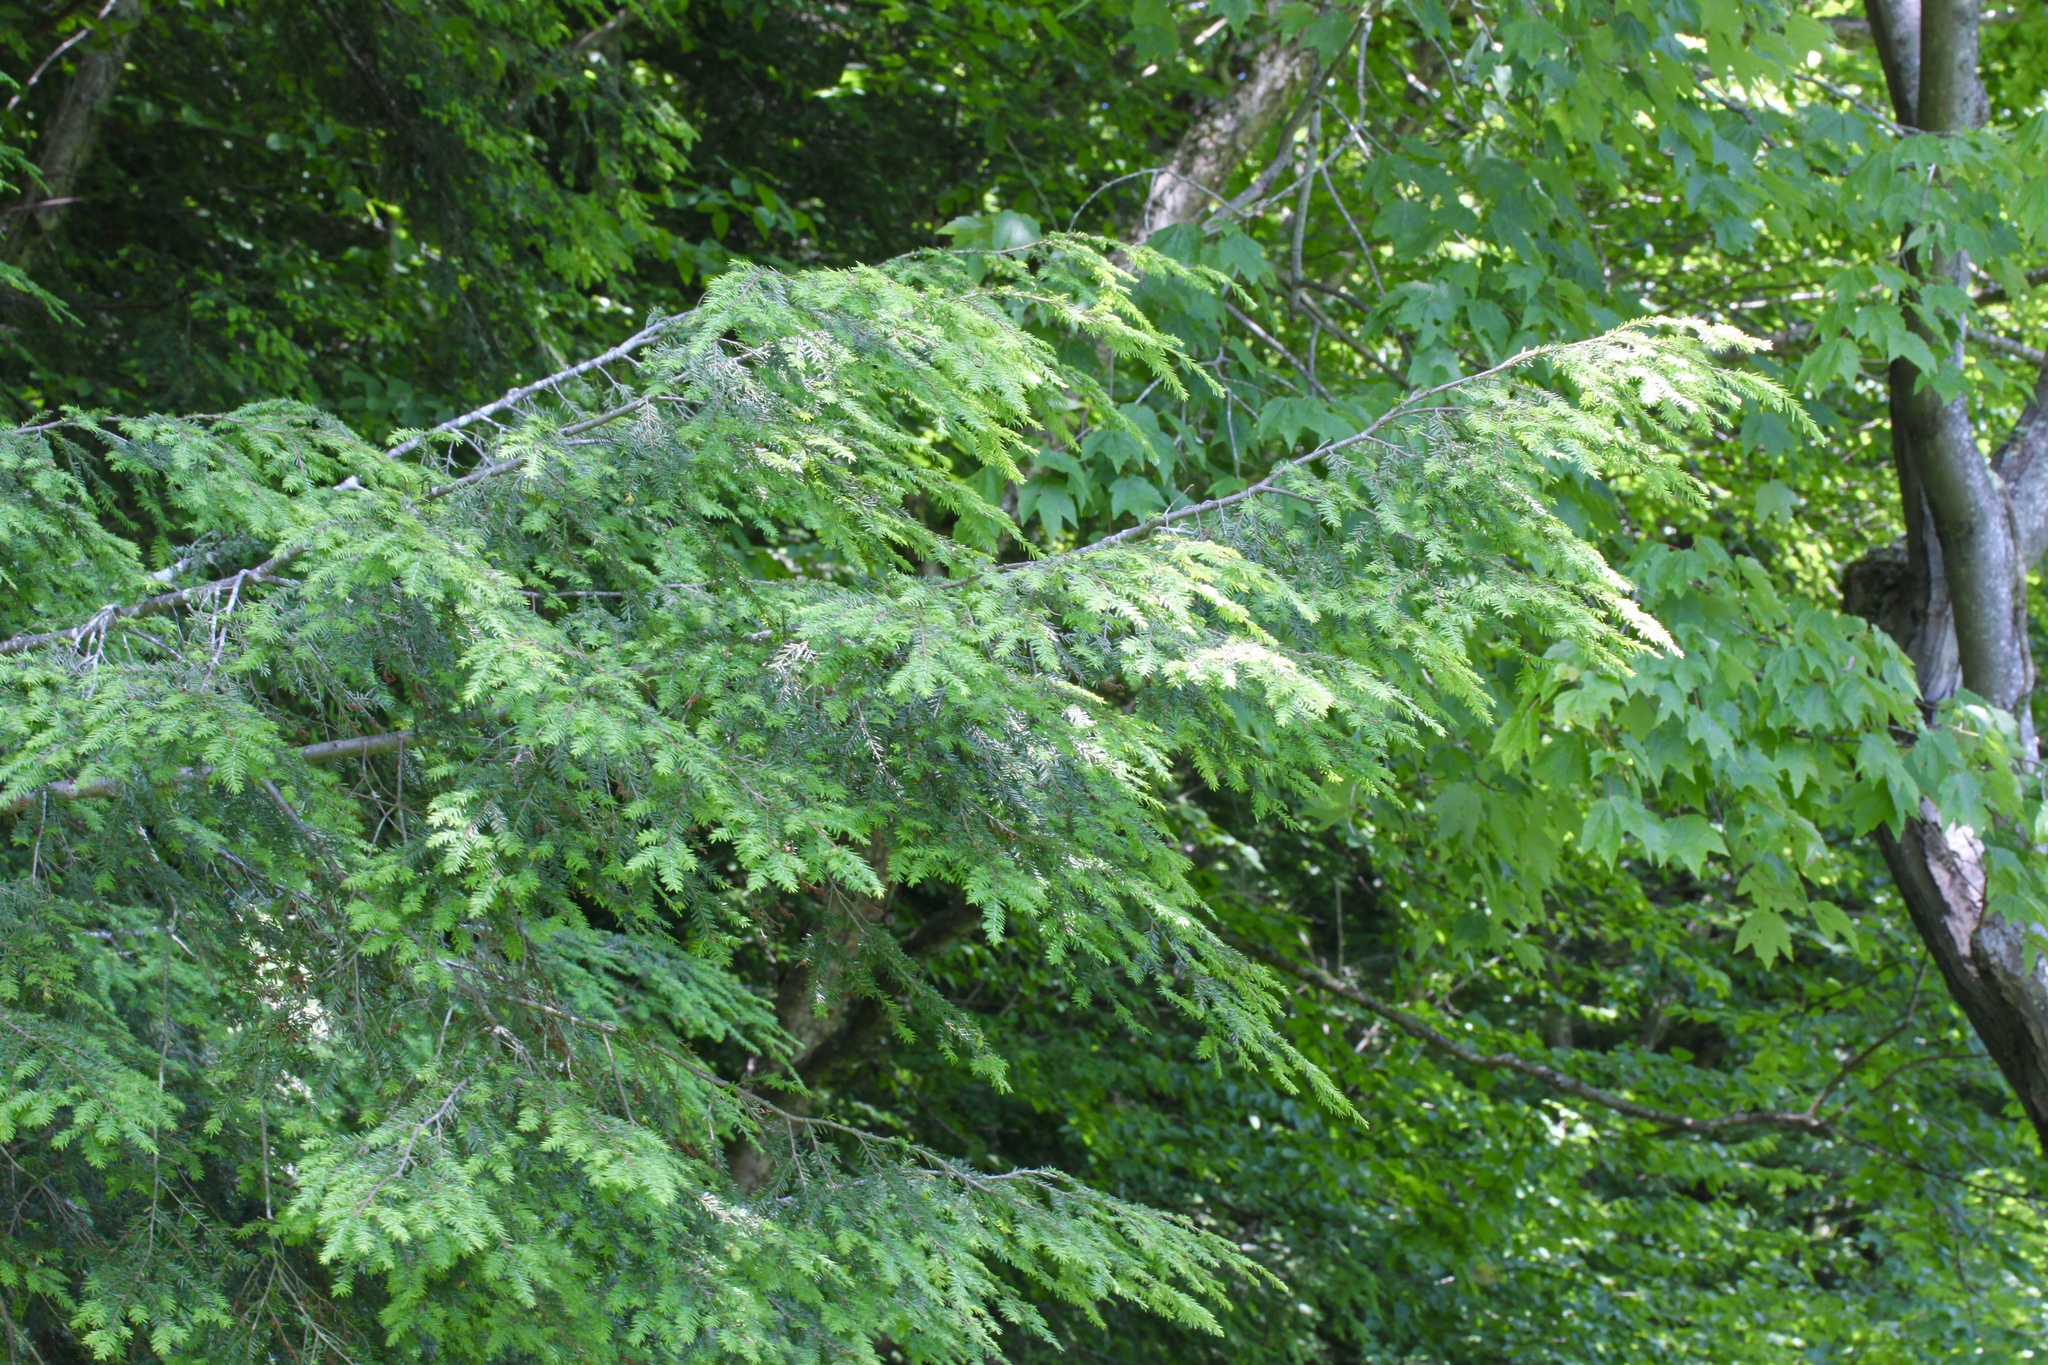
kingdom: Plantae
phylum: Tracheophyta
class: Pinopsida
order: Pinales
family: Pinaceae
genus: Tsuga
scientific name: Tsuga canadensis
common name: Eastern hemlock
